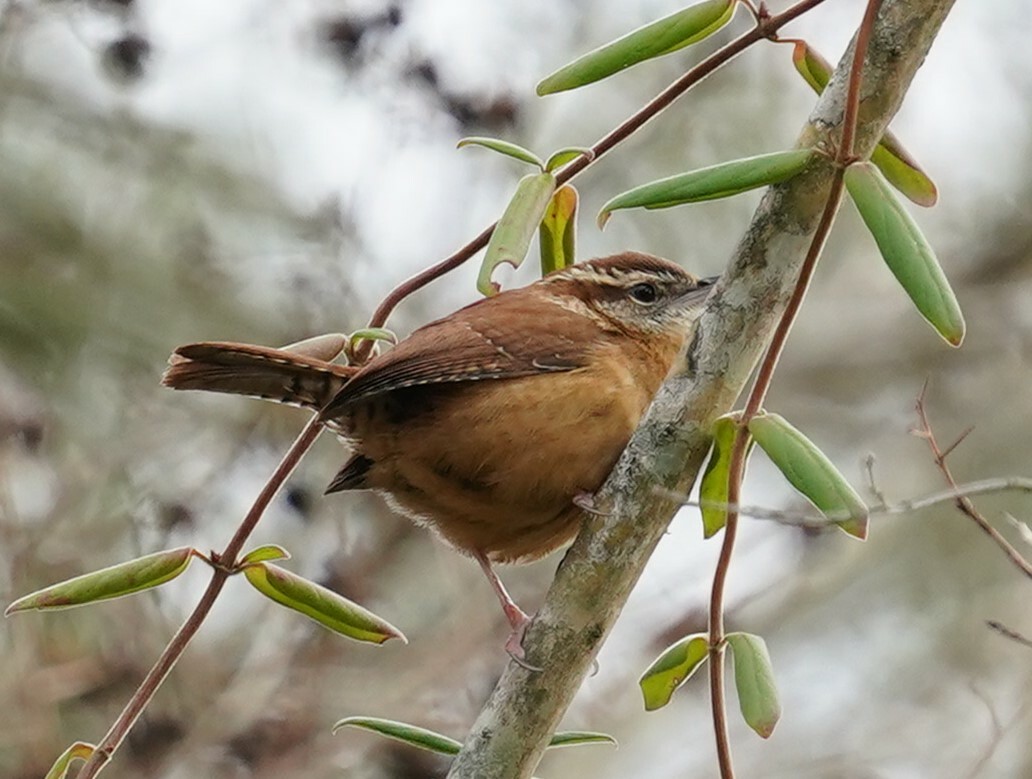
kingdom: Animalia
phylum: Chordata
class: Aves
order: Passeriformes
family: Troglodytidae
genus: Thryothorus
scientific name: Thryothorus ludovicianus
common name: Carolina wren
